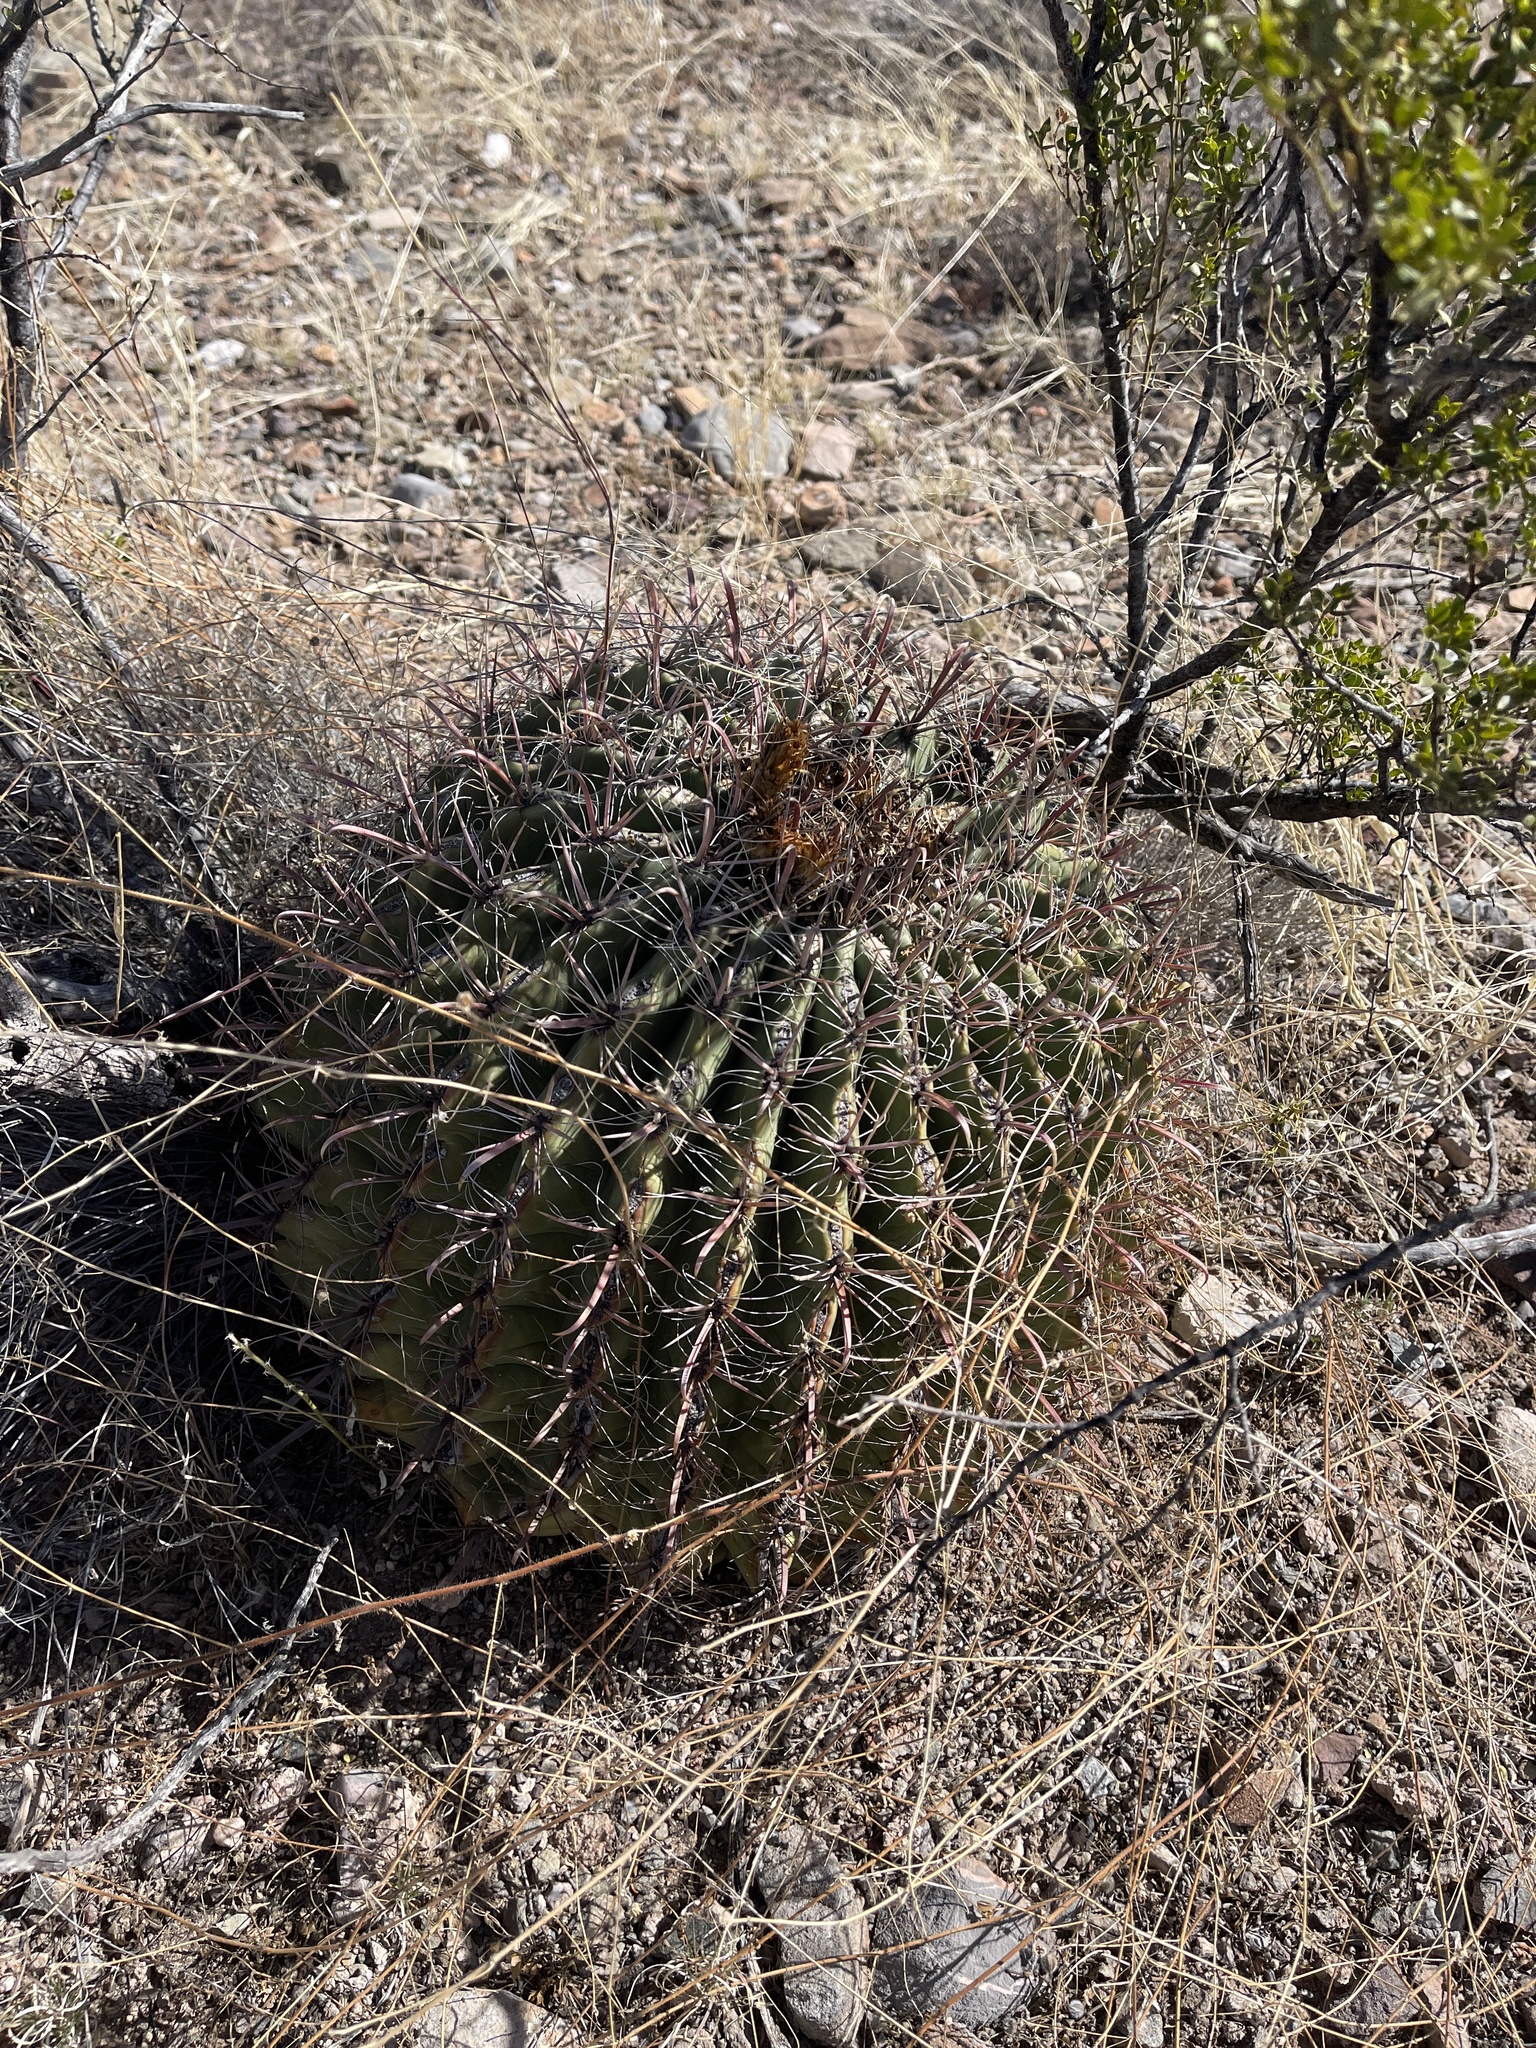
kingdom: Plantae
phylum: Tracheophyta
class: Magnoliopsida
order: Caryophyllales
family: Cactaceae
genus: Ferocactus
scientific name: Ferocactus wislizeni
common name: Candy barrel cactus
